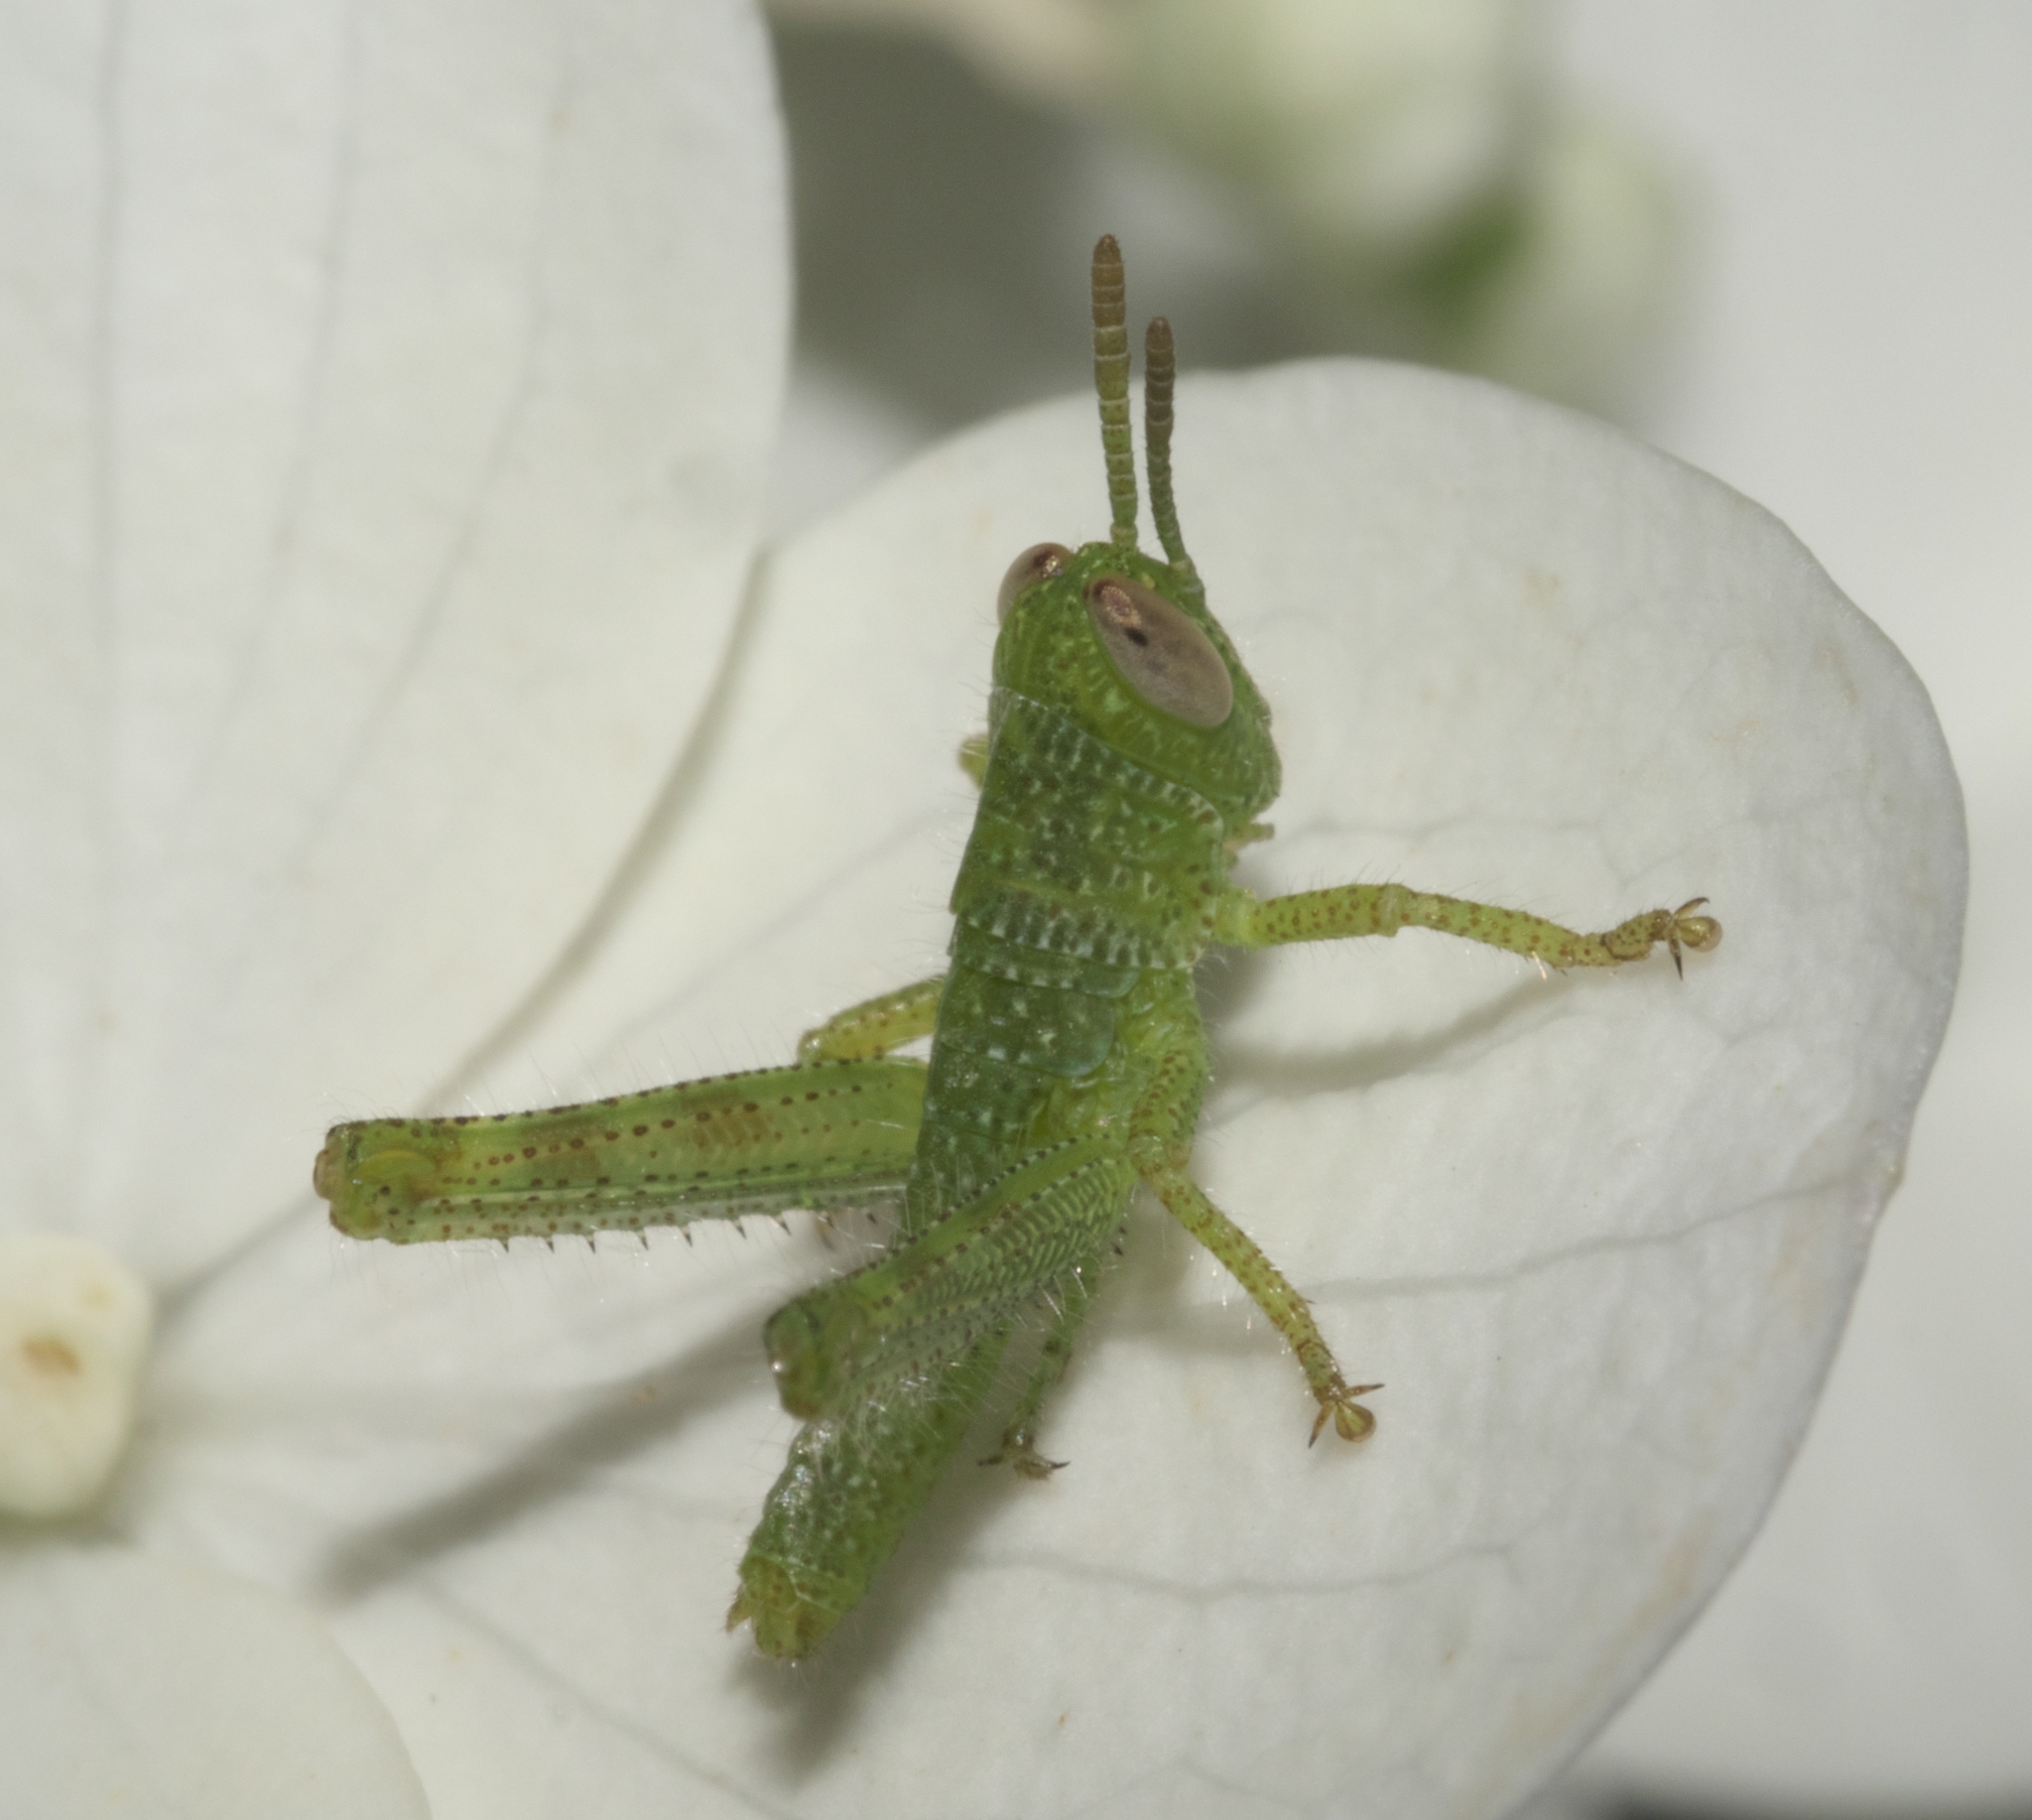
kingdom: Animalia
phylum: Arthropoda
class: Insecta
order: Orthoptera
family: Acrididae
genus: Schistocerca
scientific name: Schistocerca obscura
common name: Obscure bird grasshopper
